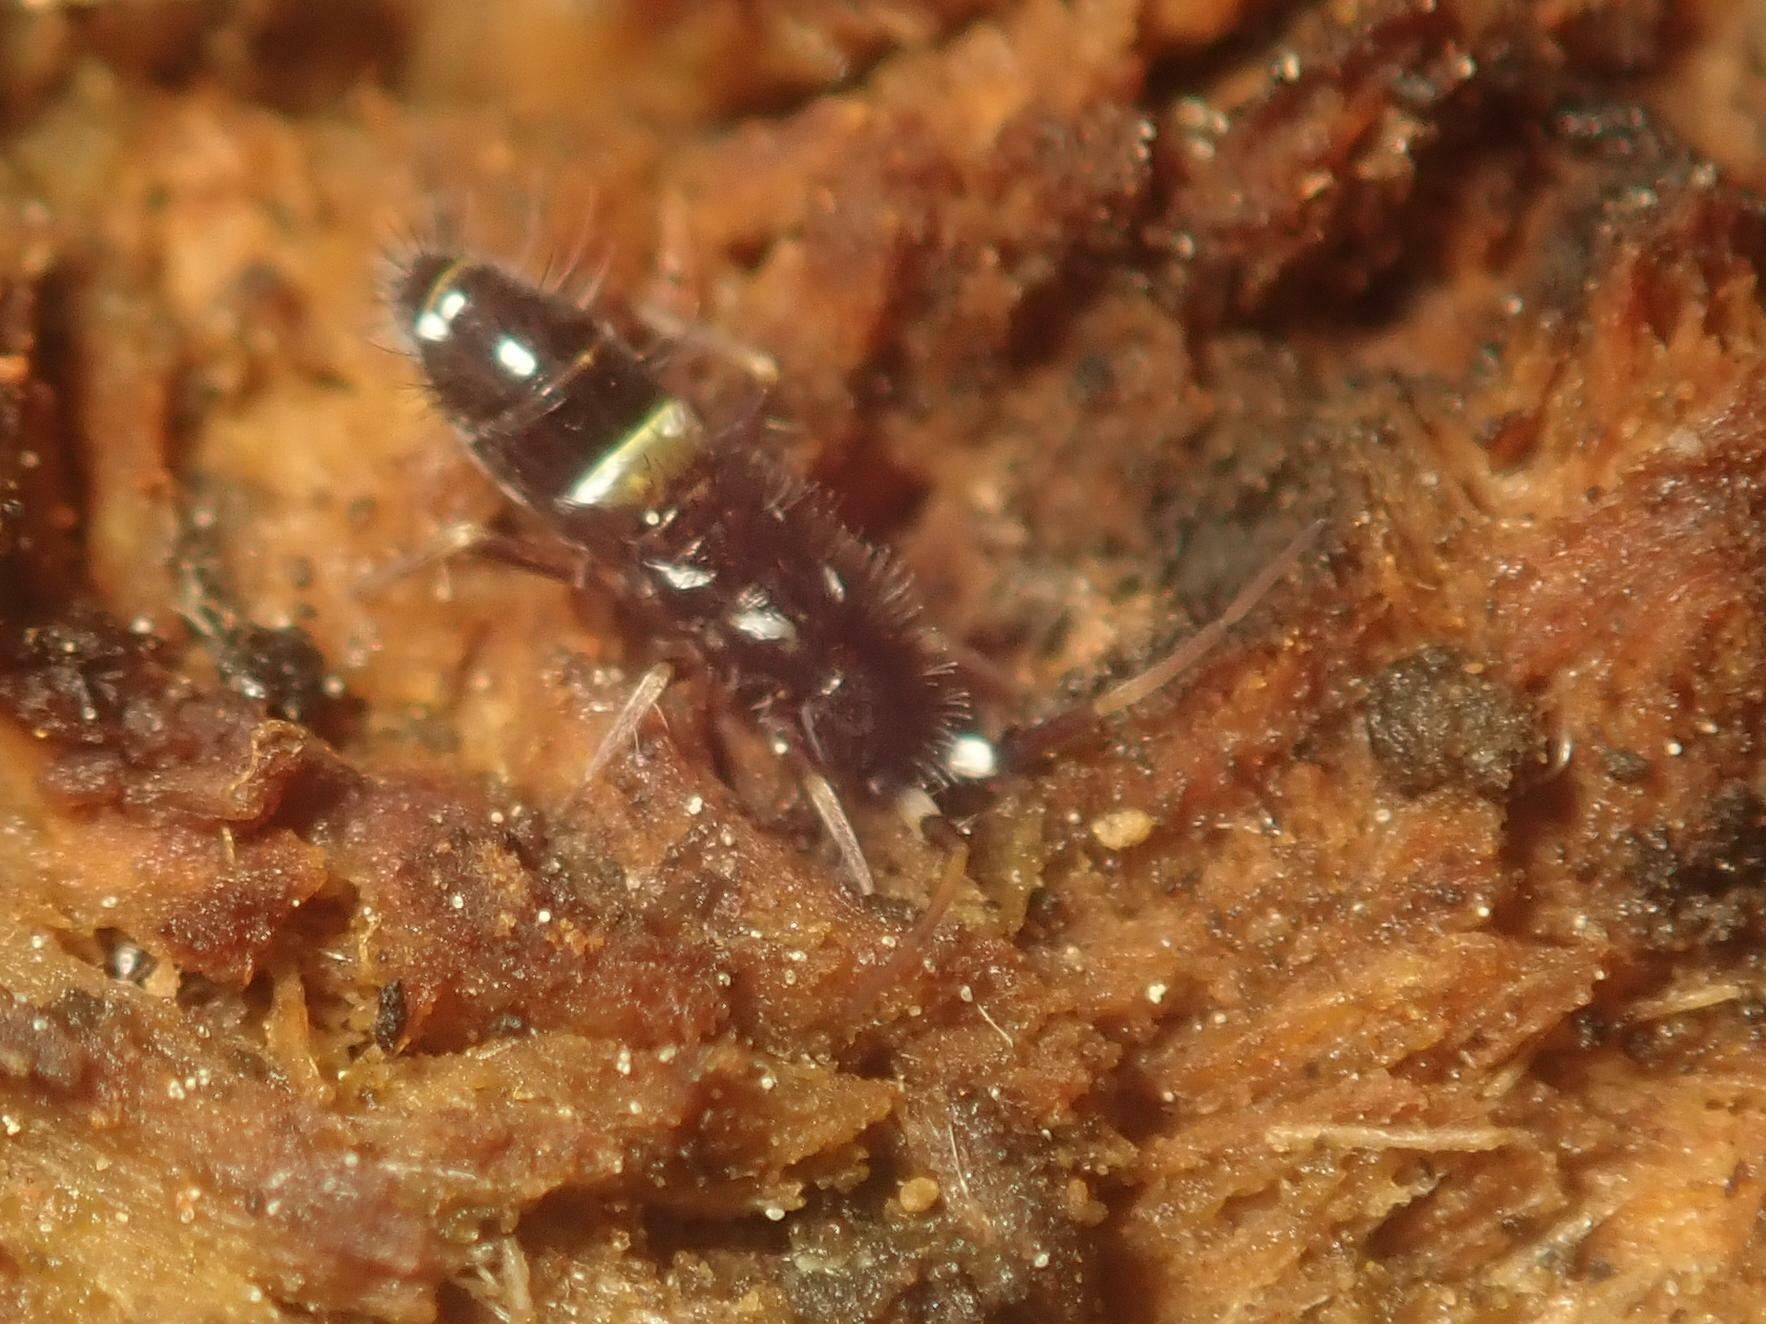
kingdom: Animalia
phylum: Arthropoda
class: Collembola
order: Entomobryomorpha
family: Orchesellidae
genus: Orchesella
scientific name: Orchesella cincta
